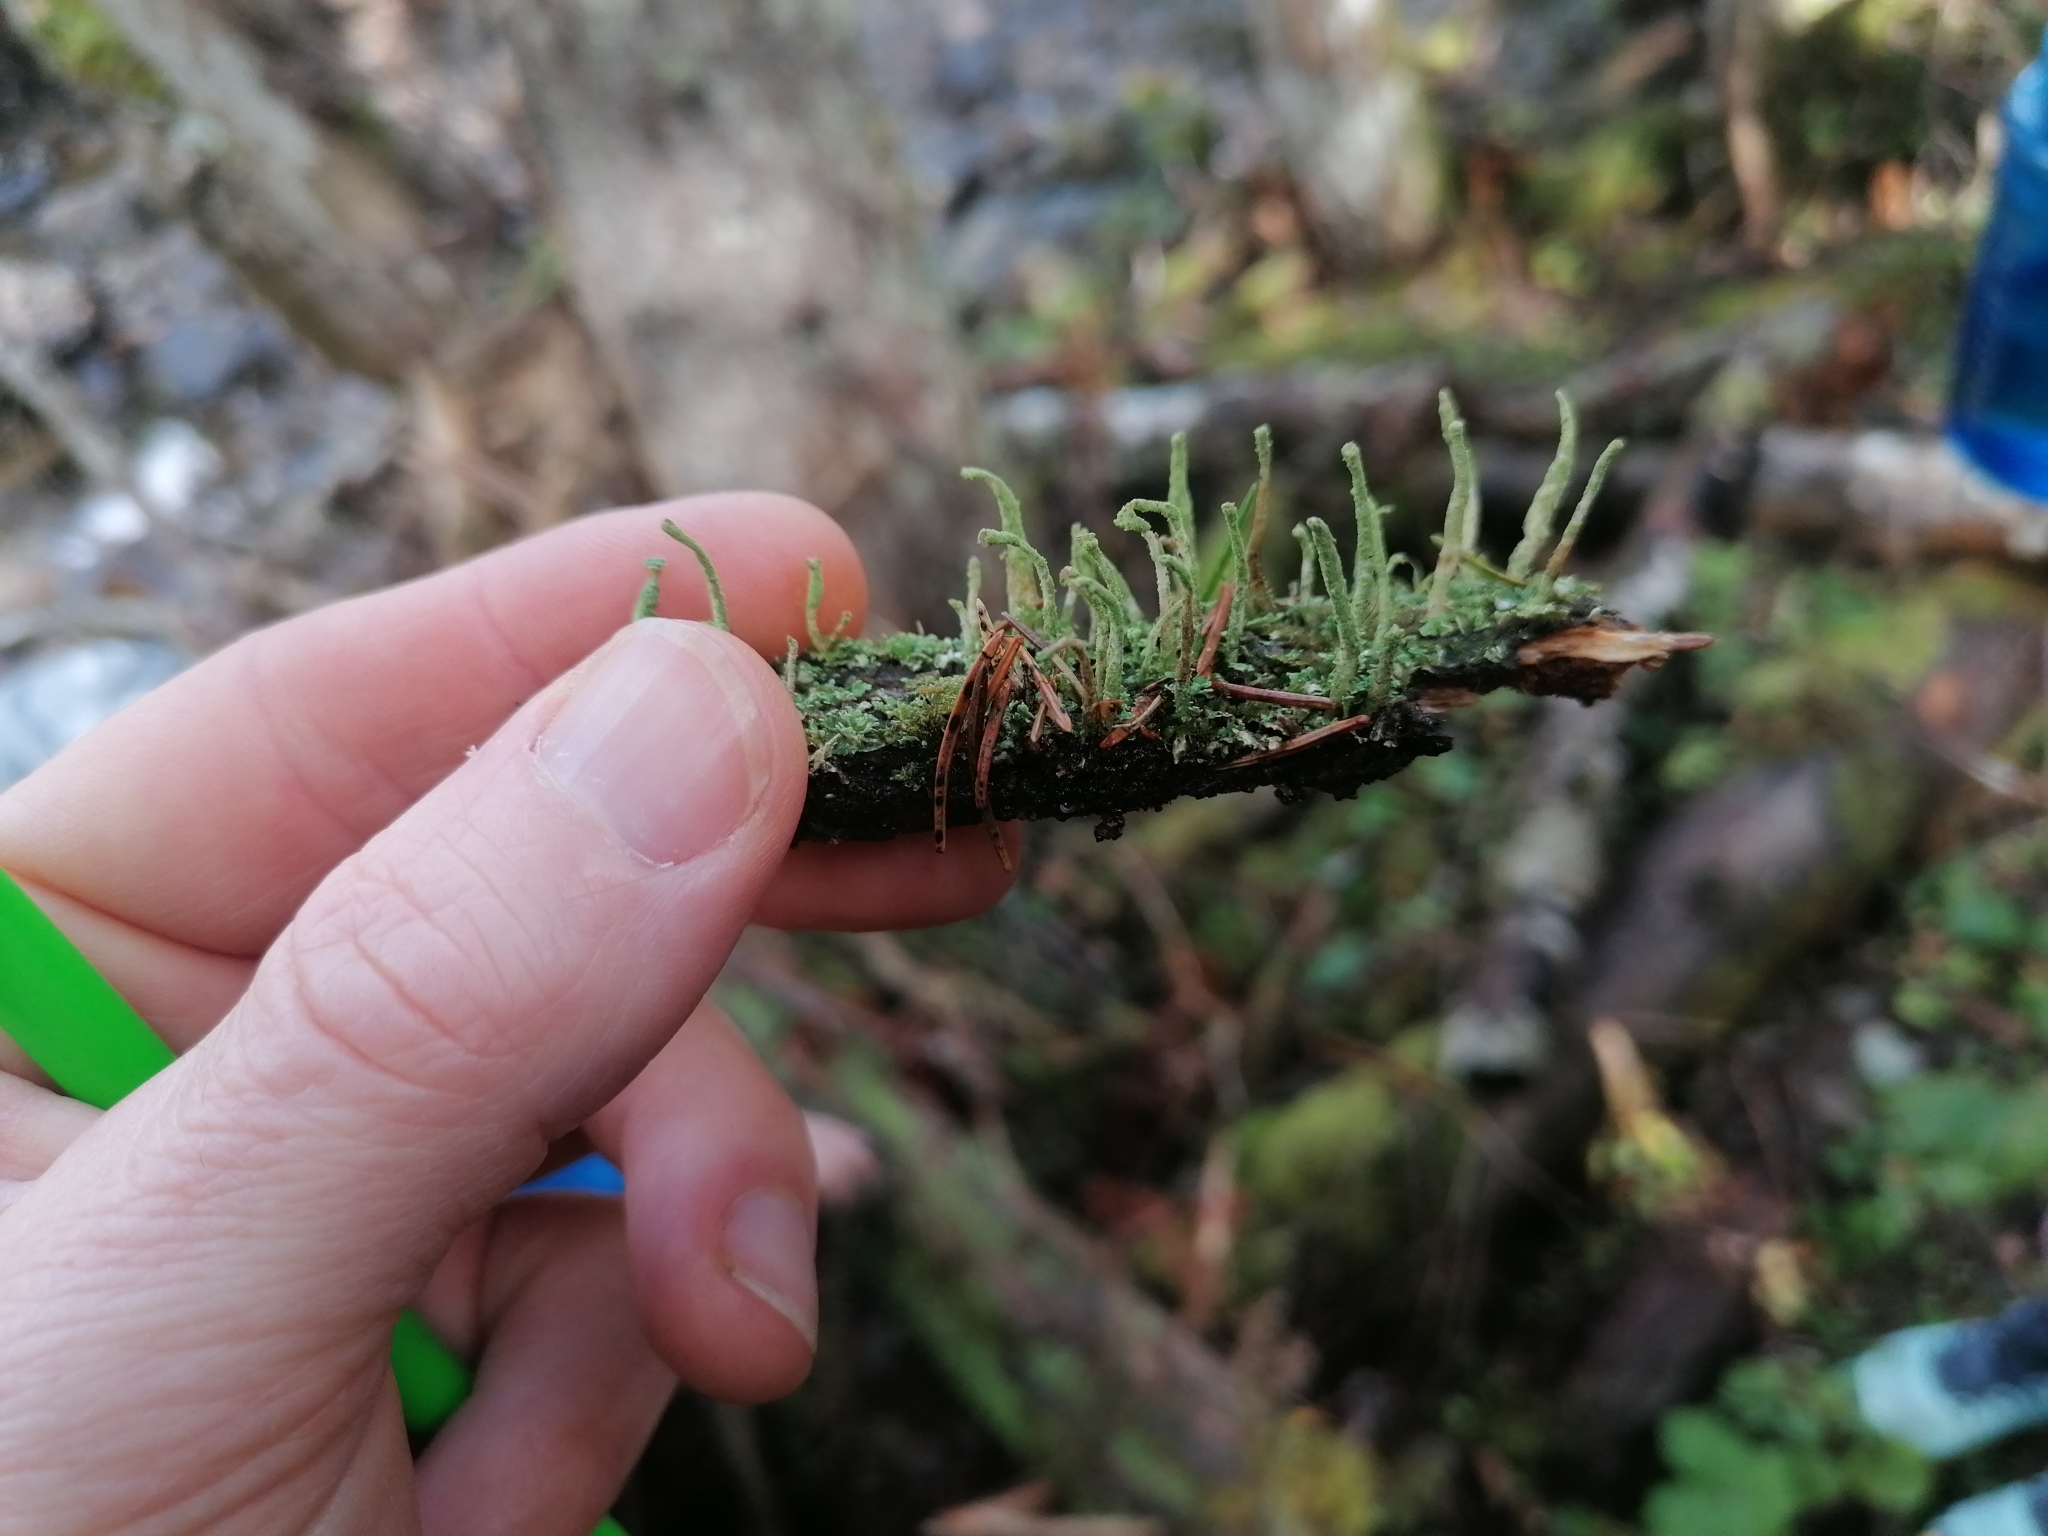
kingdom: Fungi
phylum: Ascomycota
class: Lecanoromycetes
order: Lecanorales
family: Cladoniaceae
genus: Cladonia
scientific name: Cladonia coniocraea
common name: Common powderhorn
